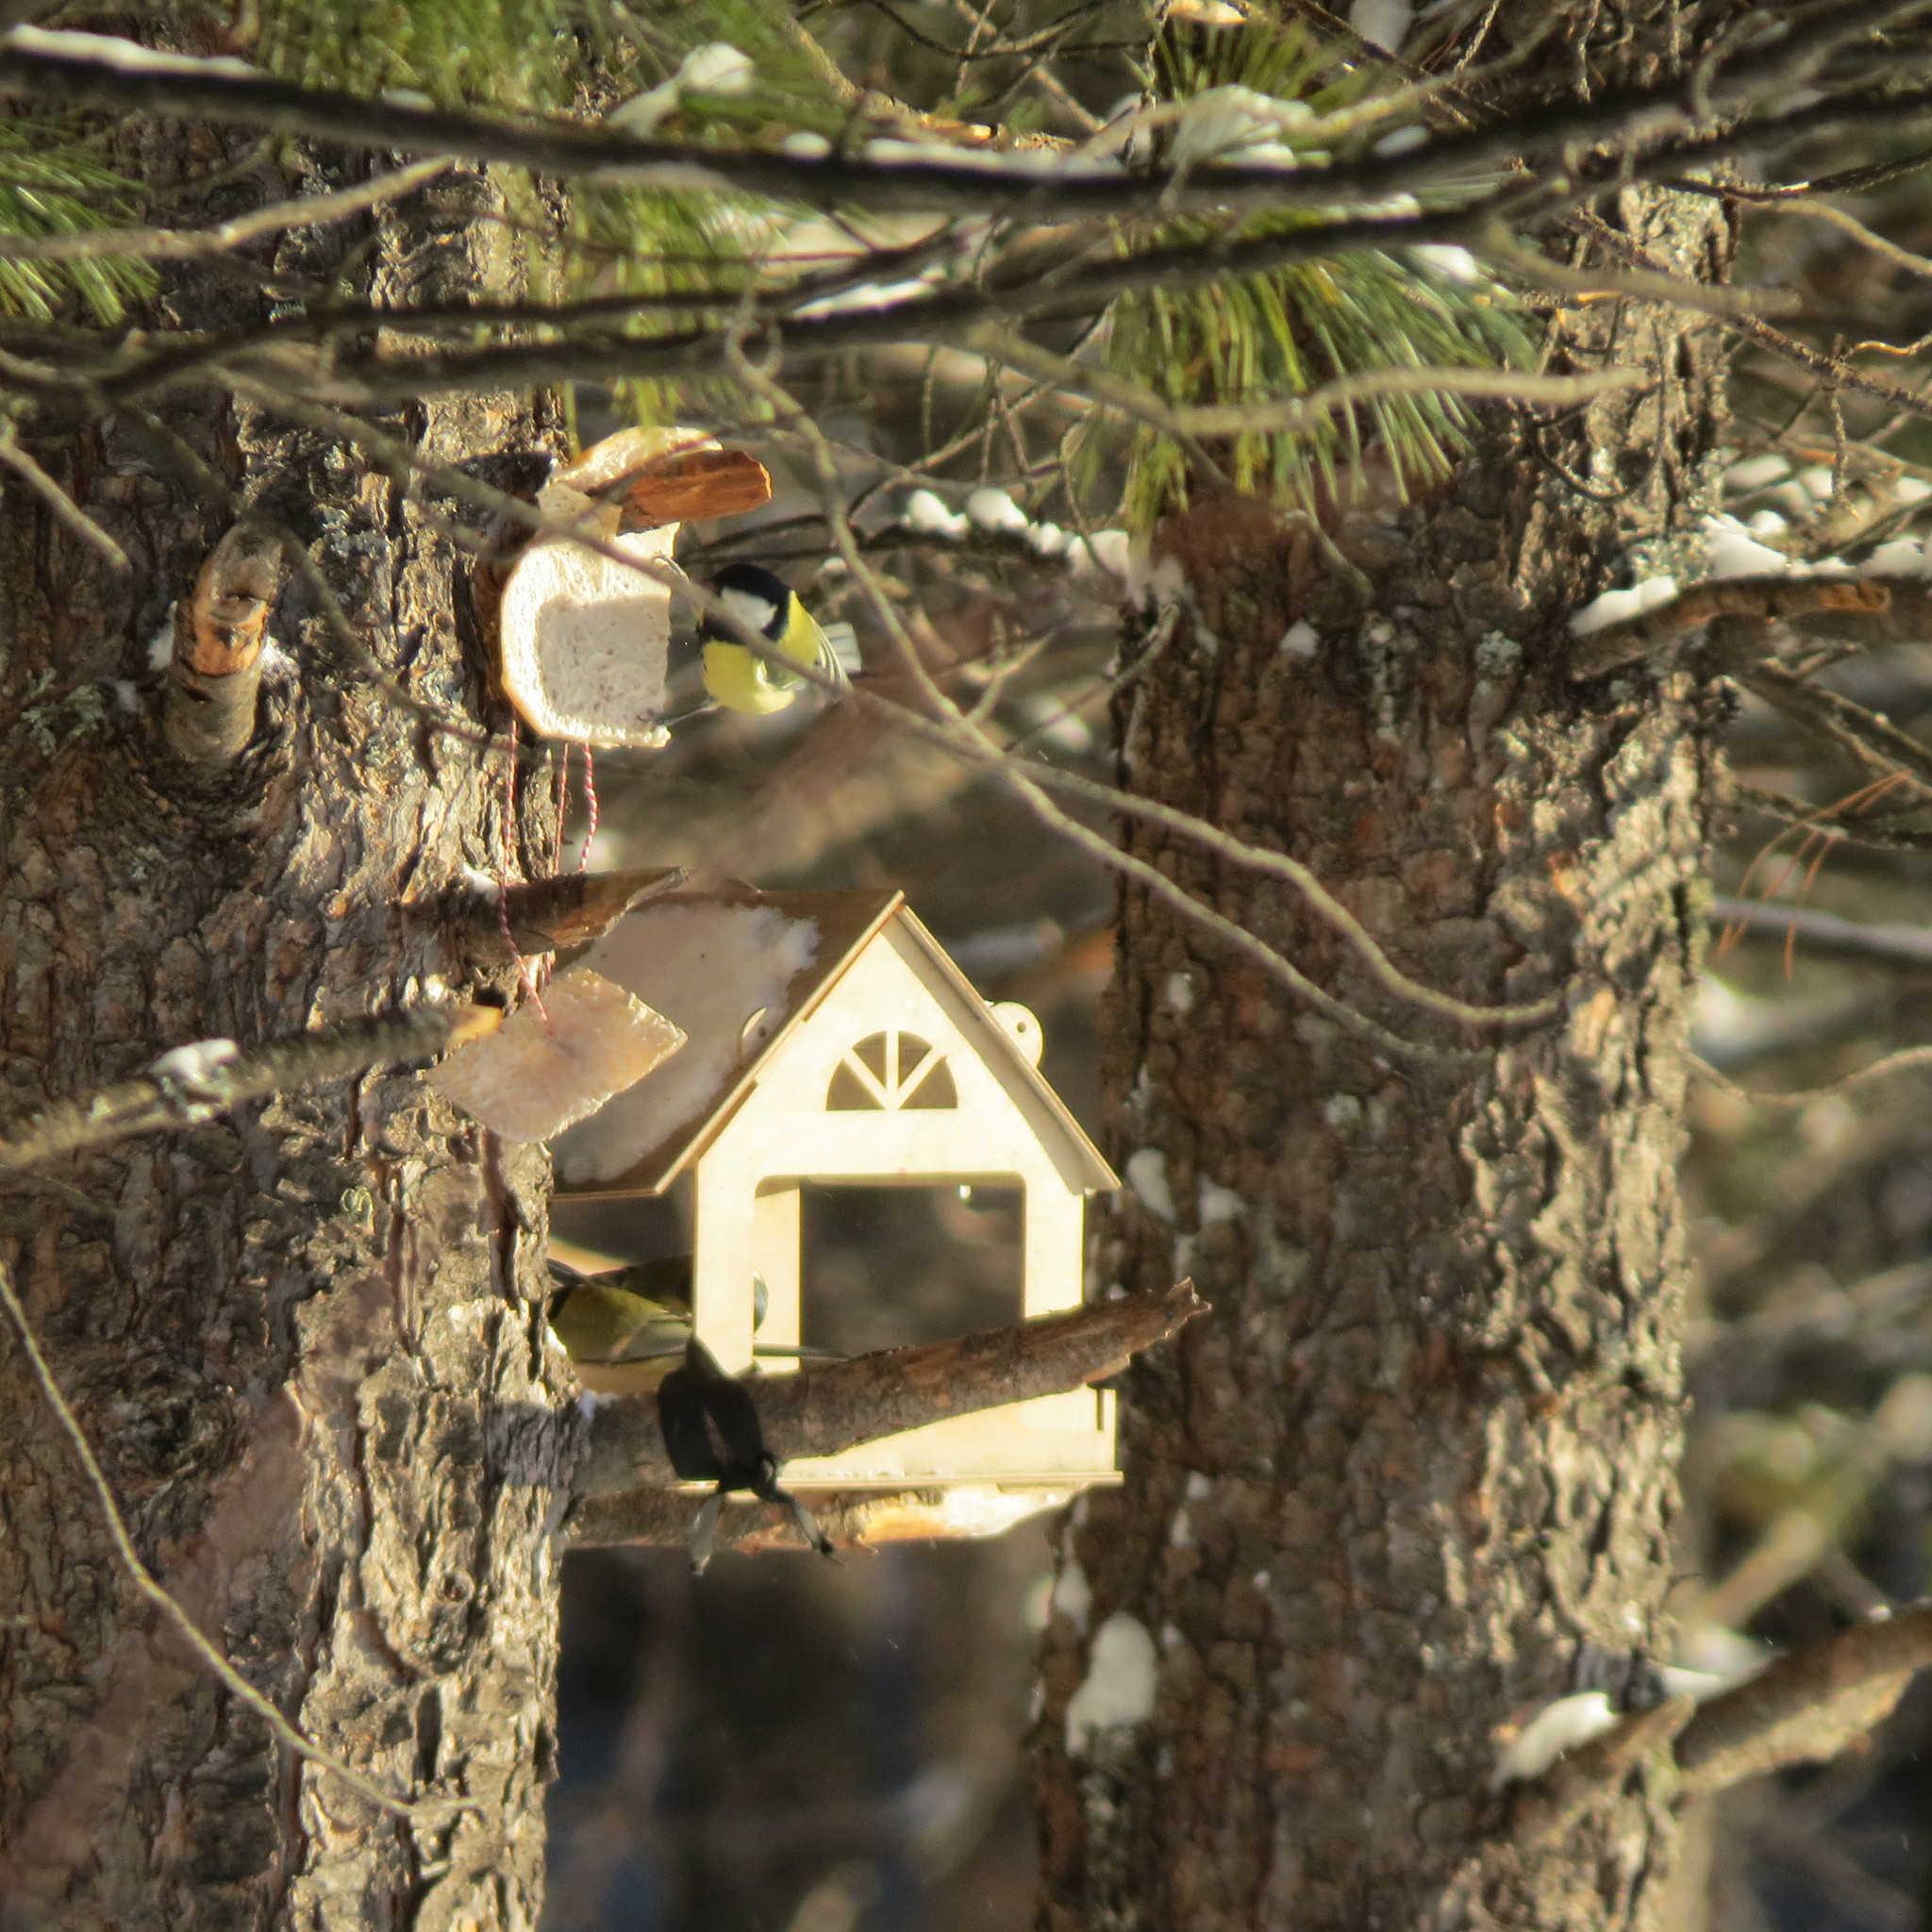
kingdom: Animalia
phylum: Chordata
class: Aves
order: Passeriformes
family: Paridae
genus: Parus
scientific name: Parus major
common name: Great tit
